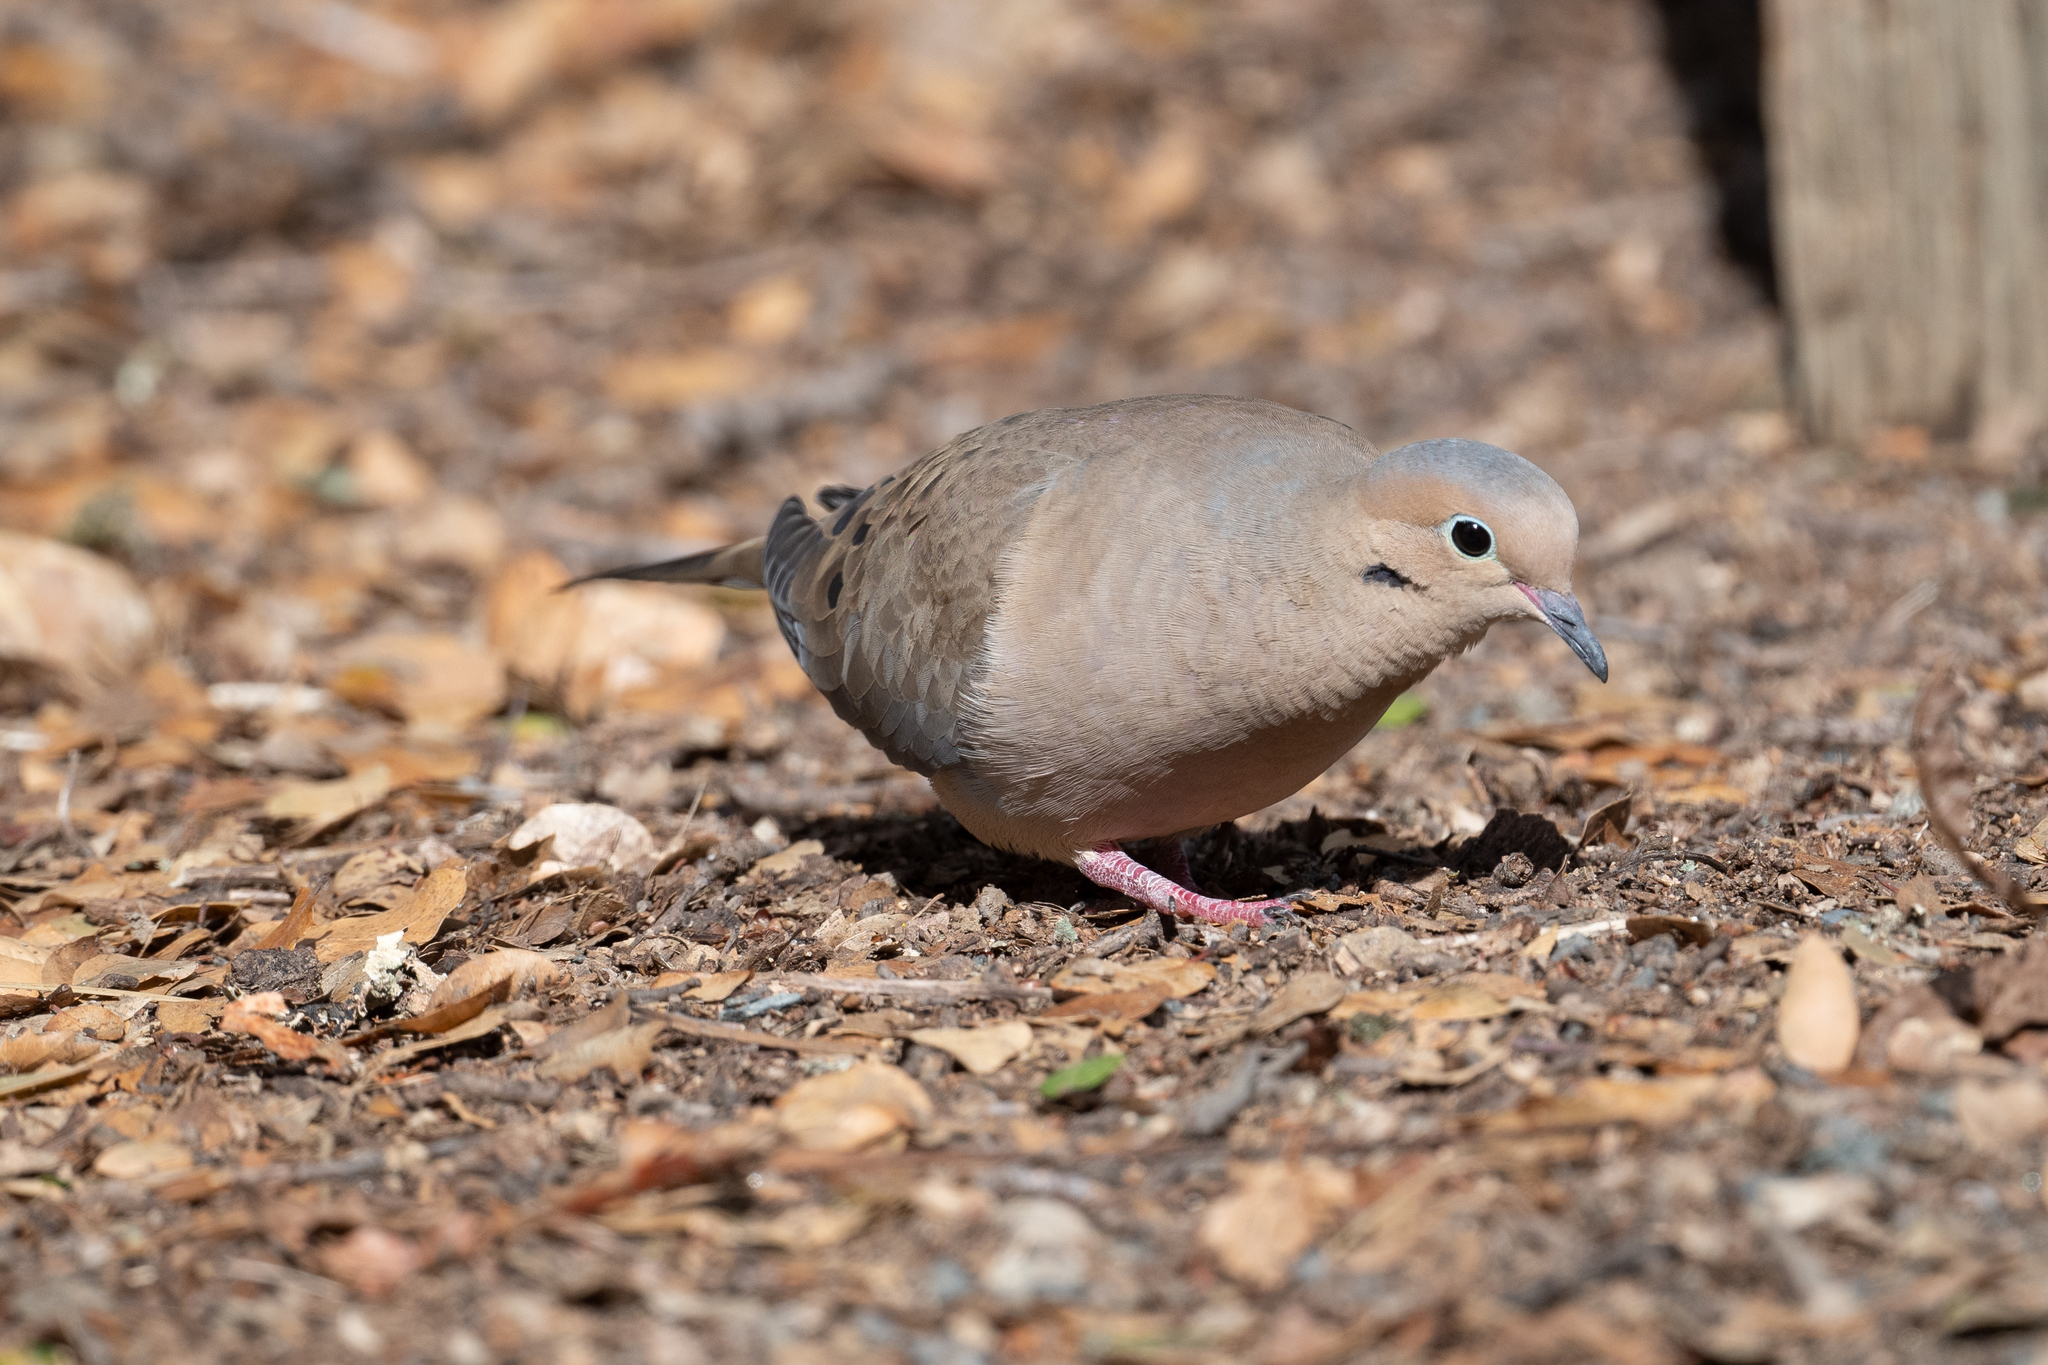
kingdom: Animalia
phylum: Chordata
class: Aves
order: Columbiformes
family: Columbidae
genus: Zenaida
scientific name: Zenaida macroura
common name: Mourning dove
